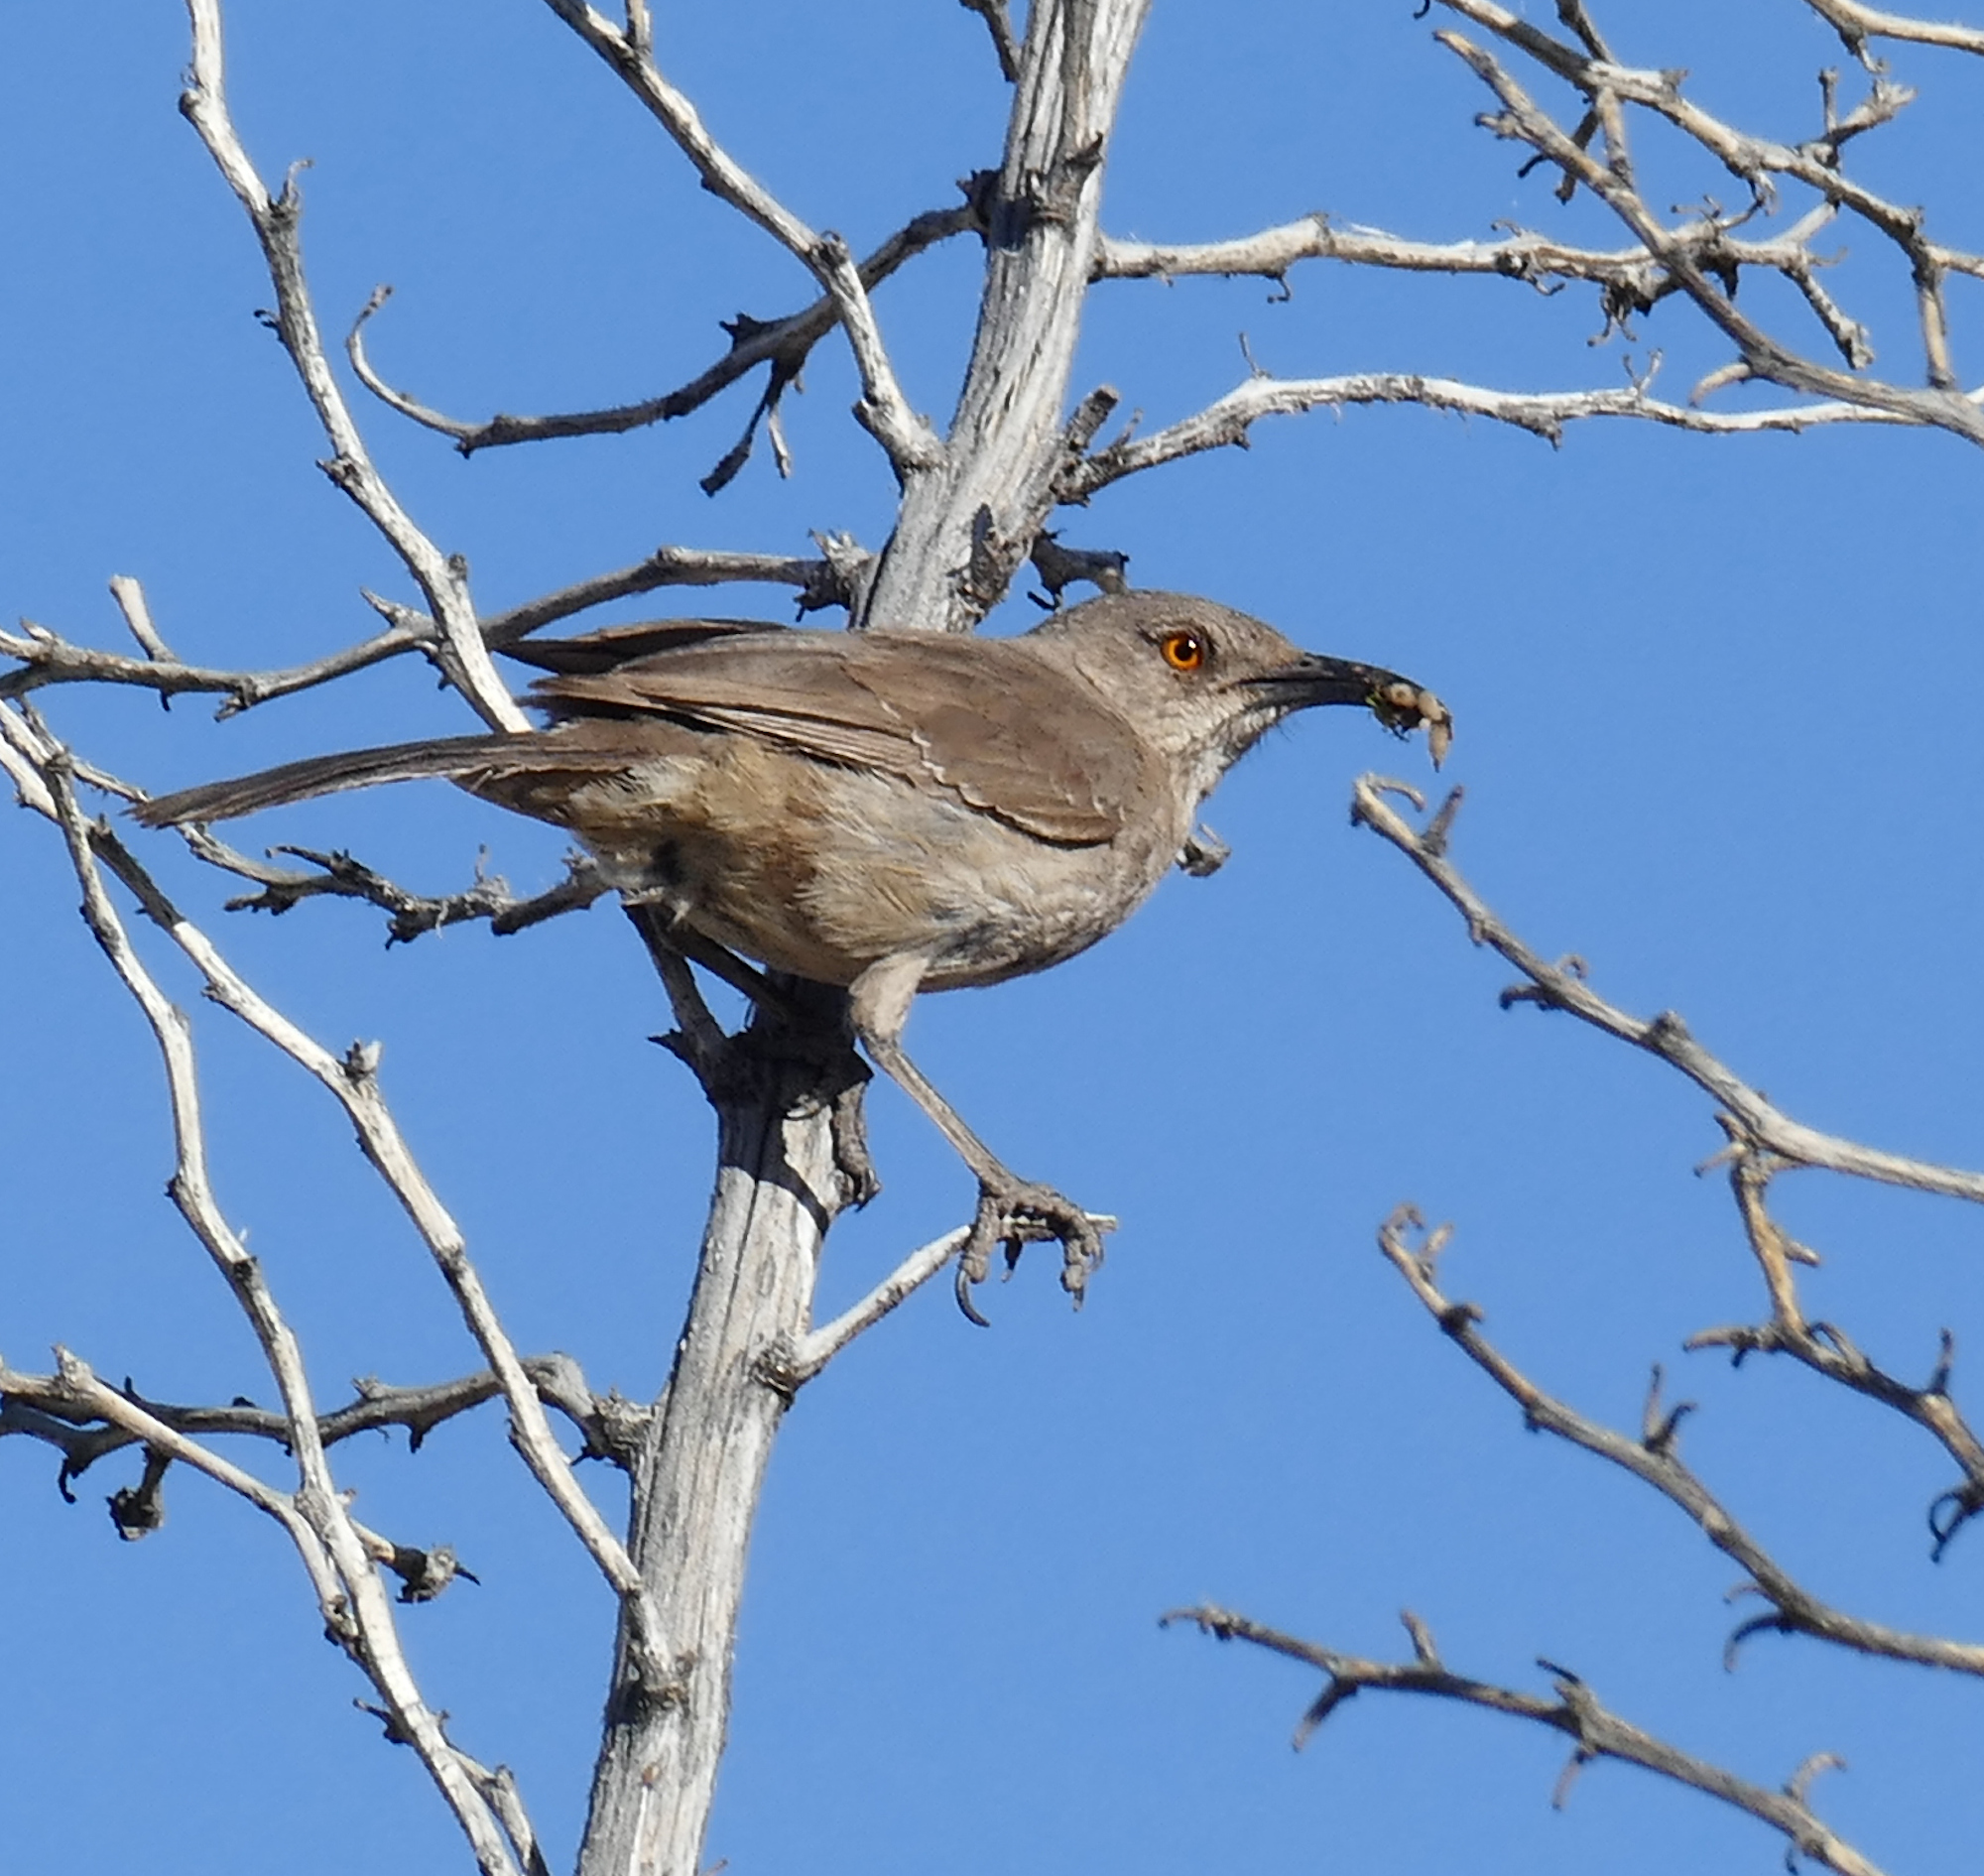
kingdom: Animalia
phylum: Chordata
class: Aves
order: Passeriformes
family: Mimidae
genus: Toxostoma
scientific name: Toxostoma curvirostre
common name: Curve-billed thrasher
